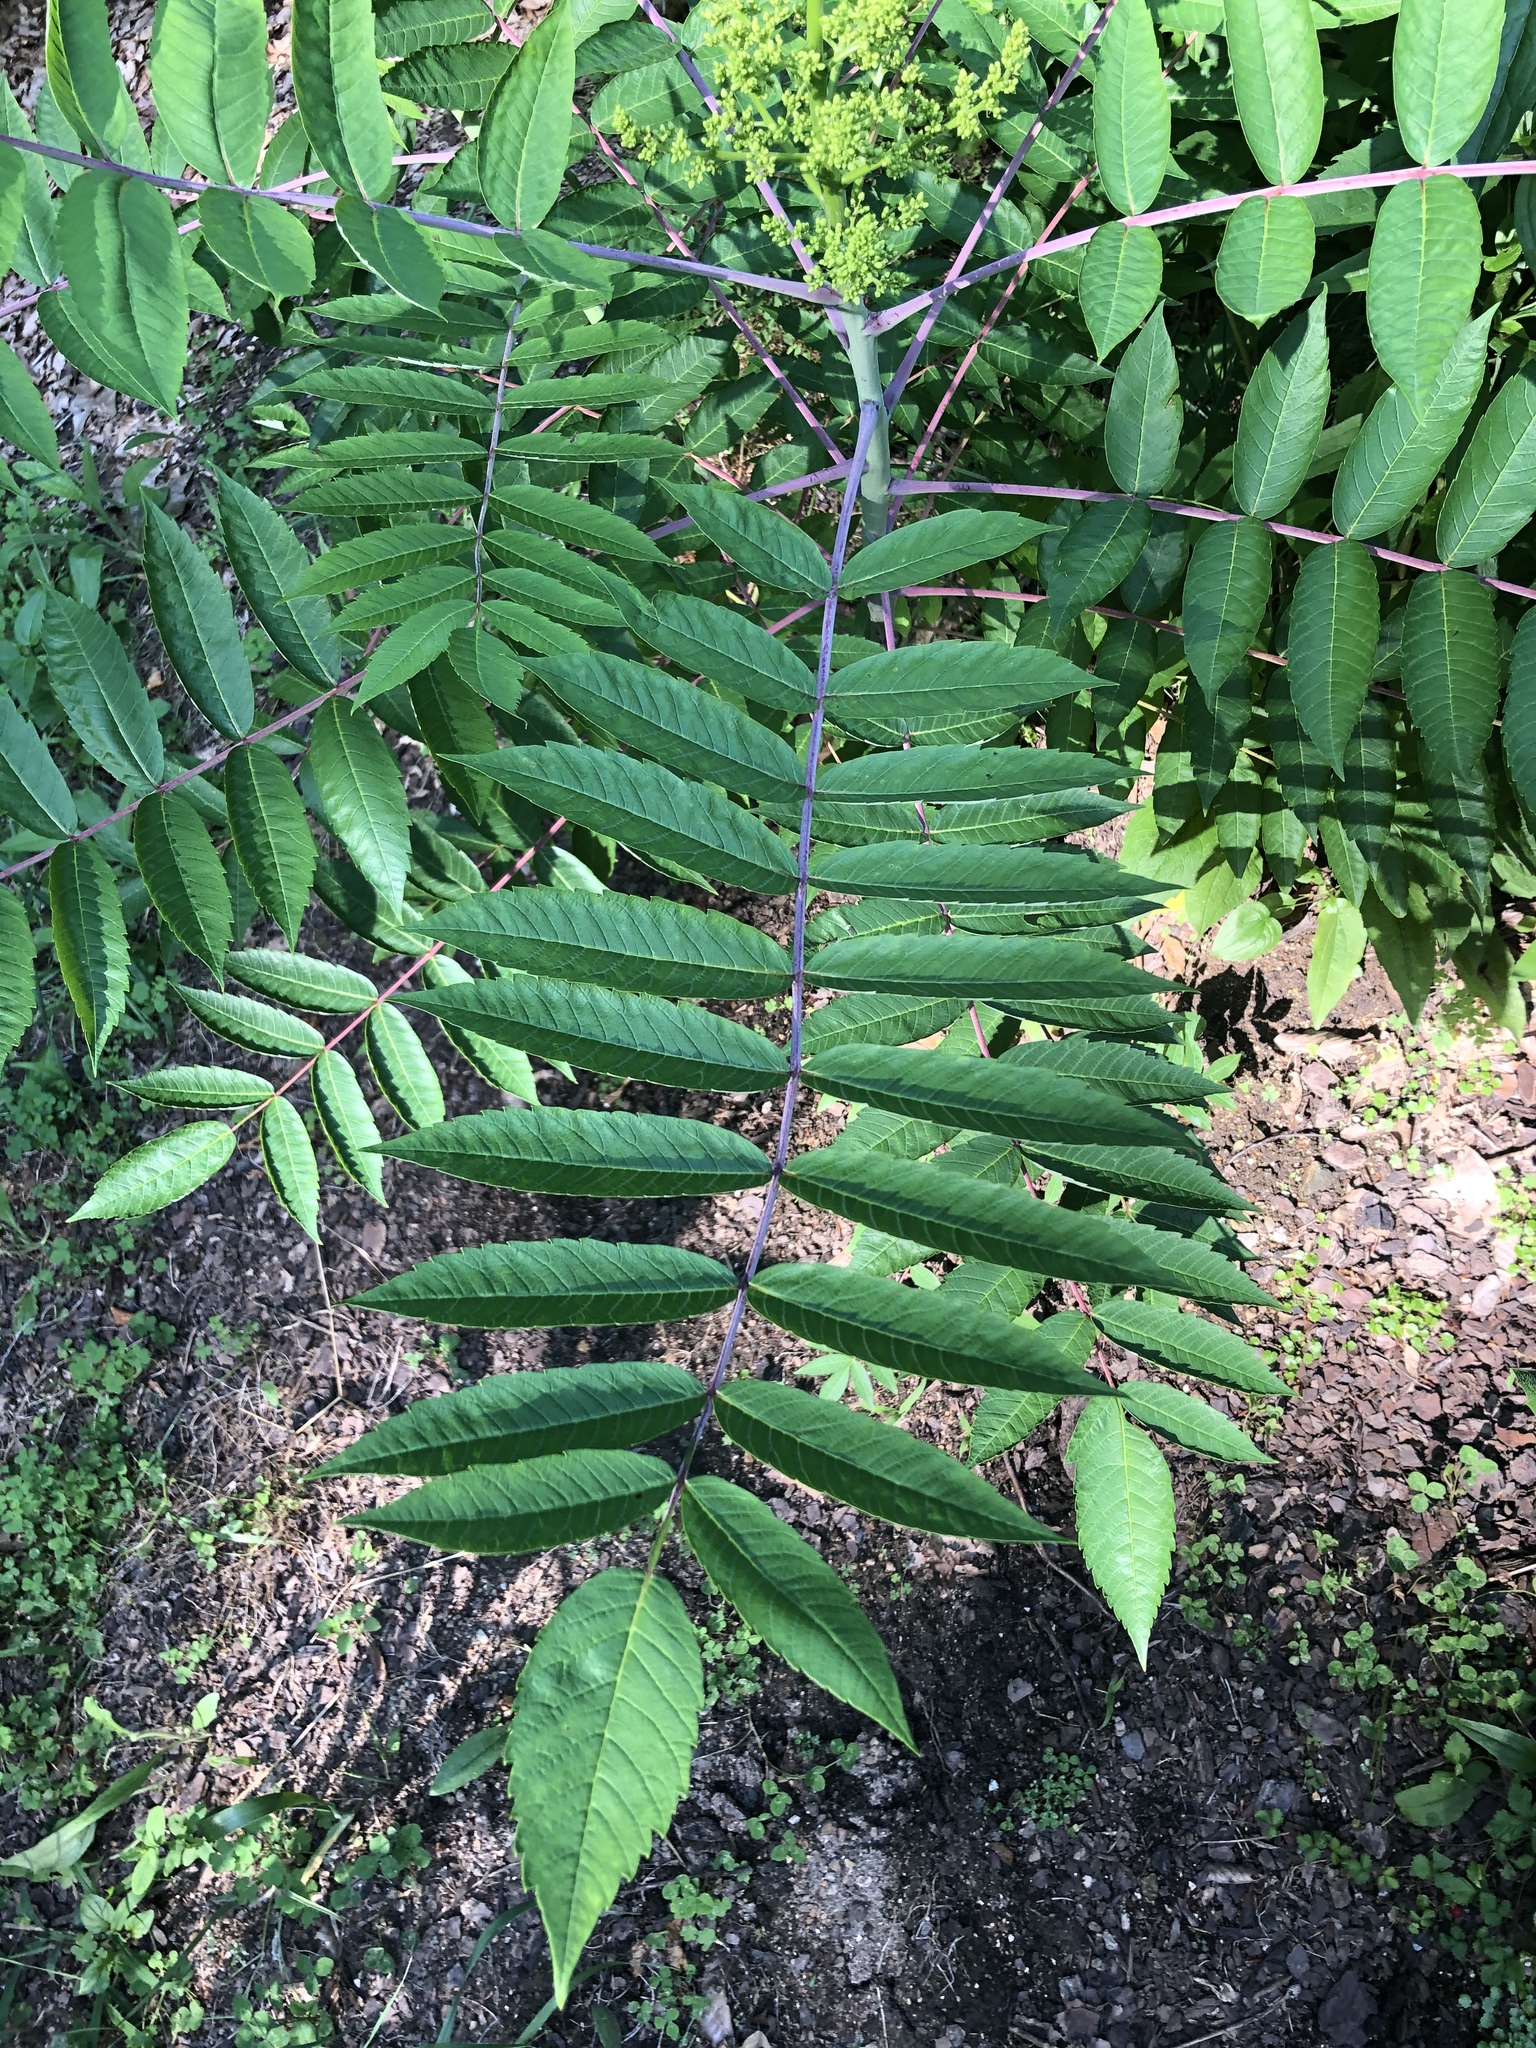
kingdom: Plantae
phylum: Tracheophyta
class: Magnoliopsida
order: Sapindales
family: Anacardiaceae
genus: Rhus
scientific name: Rhus glabra
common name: Scarlet sumac
